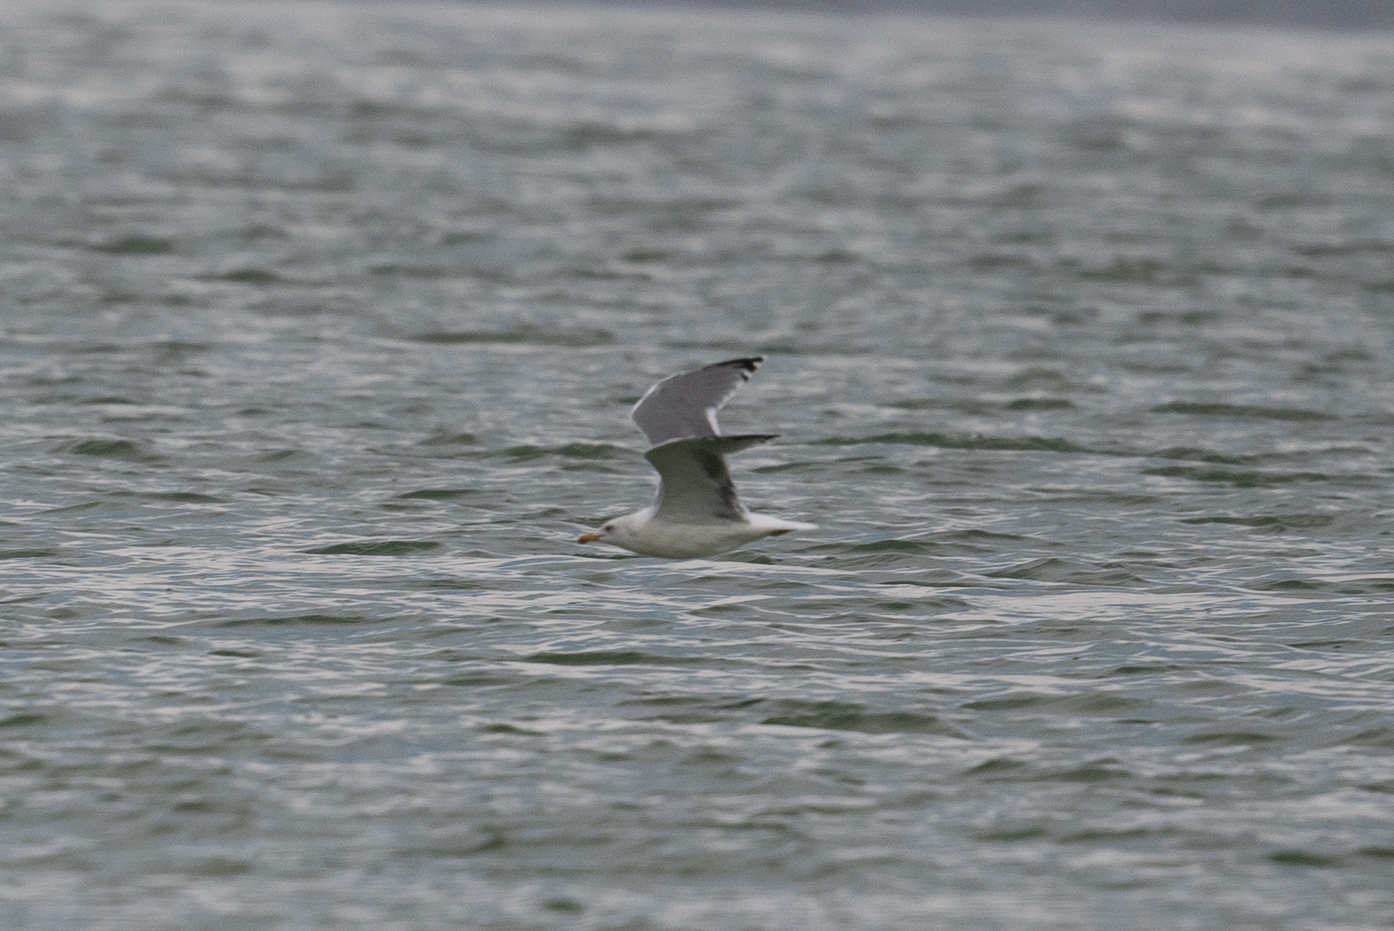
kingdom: Animalia
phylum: Chordata
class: Aves
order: Charadriiformes
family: Laridae
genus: Larus
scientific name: Larus californicus
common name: California gull
